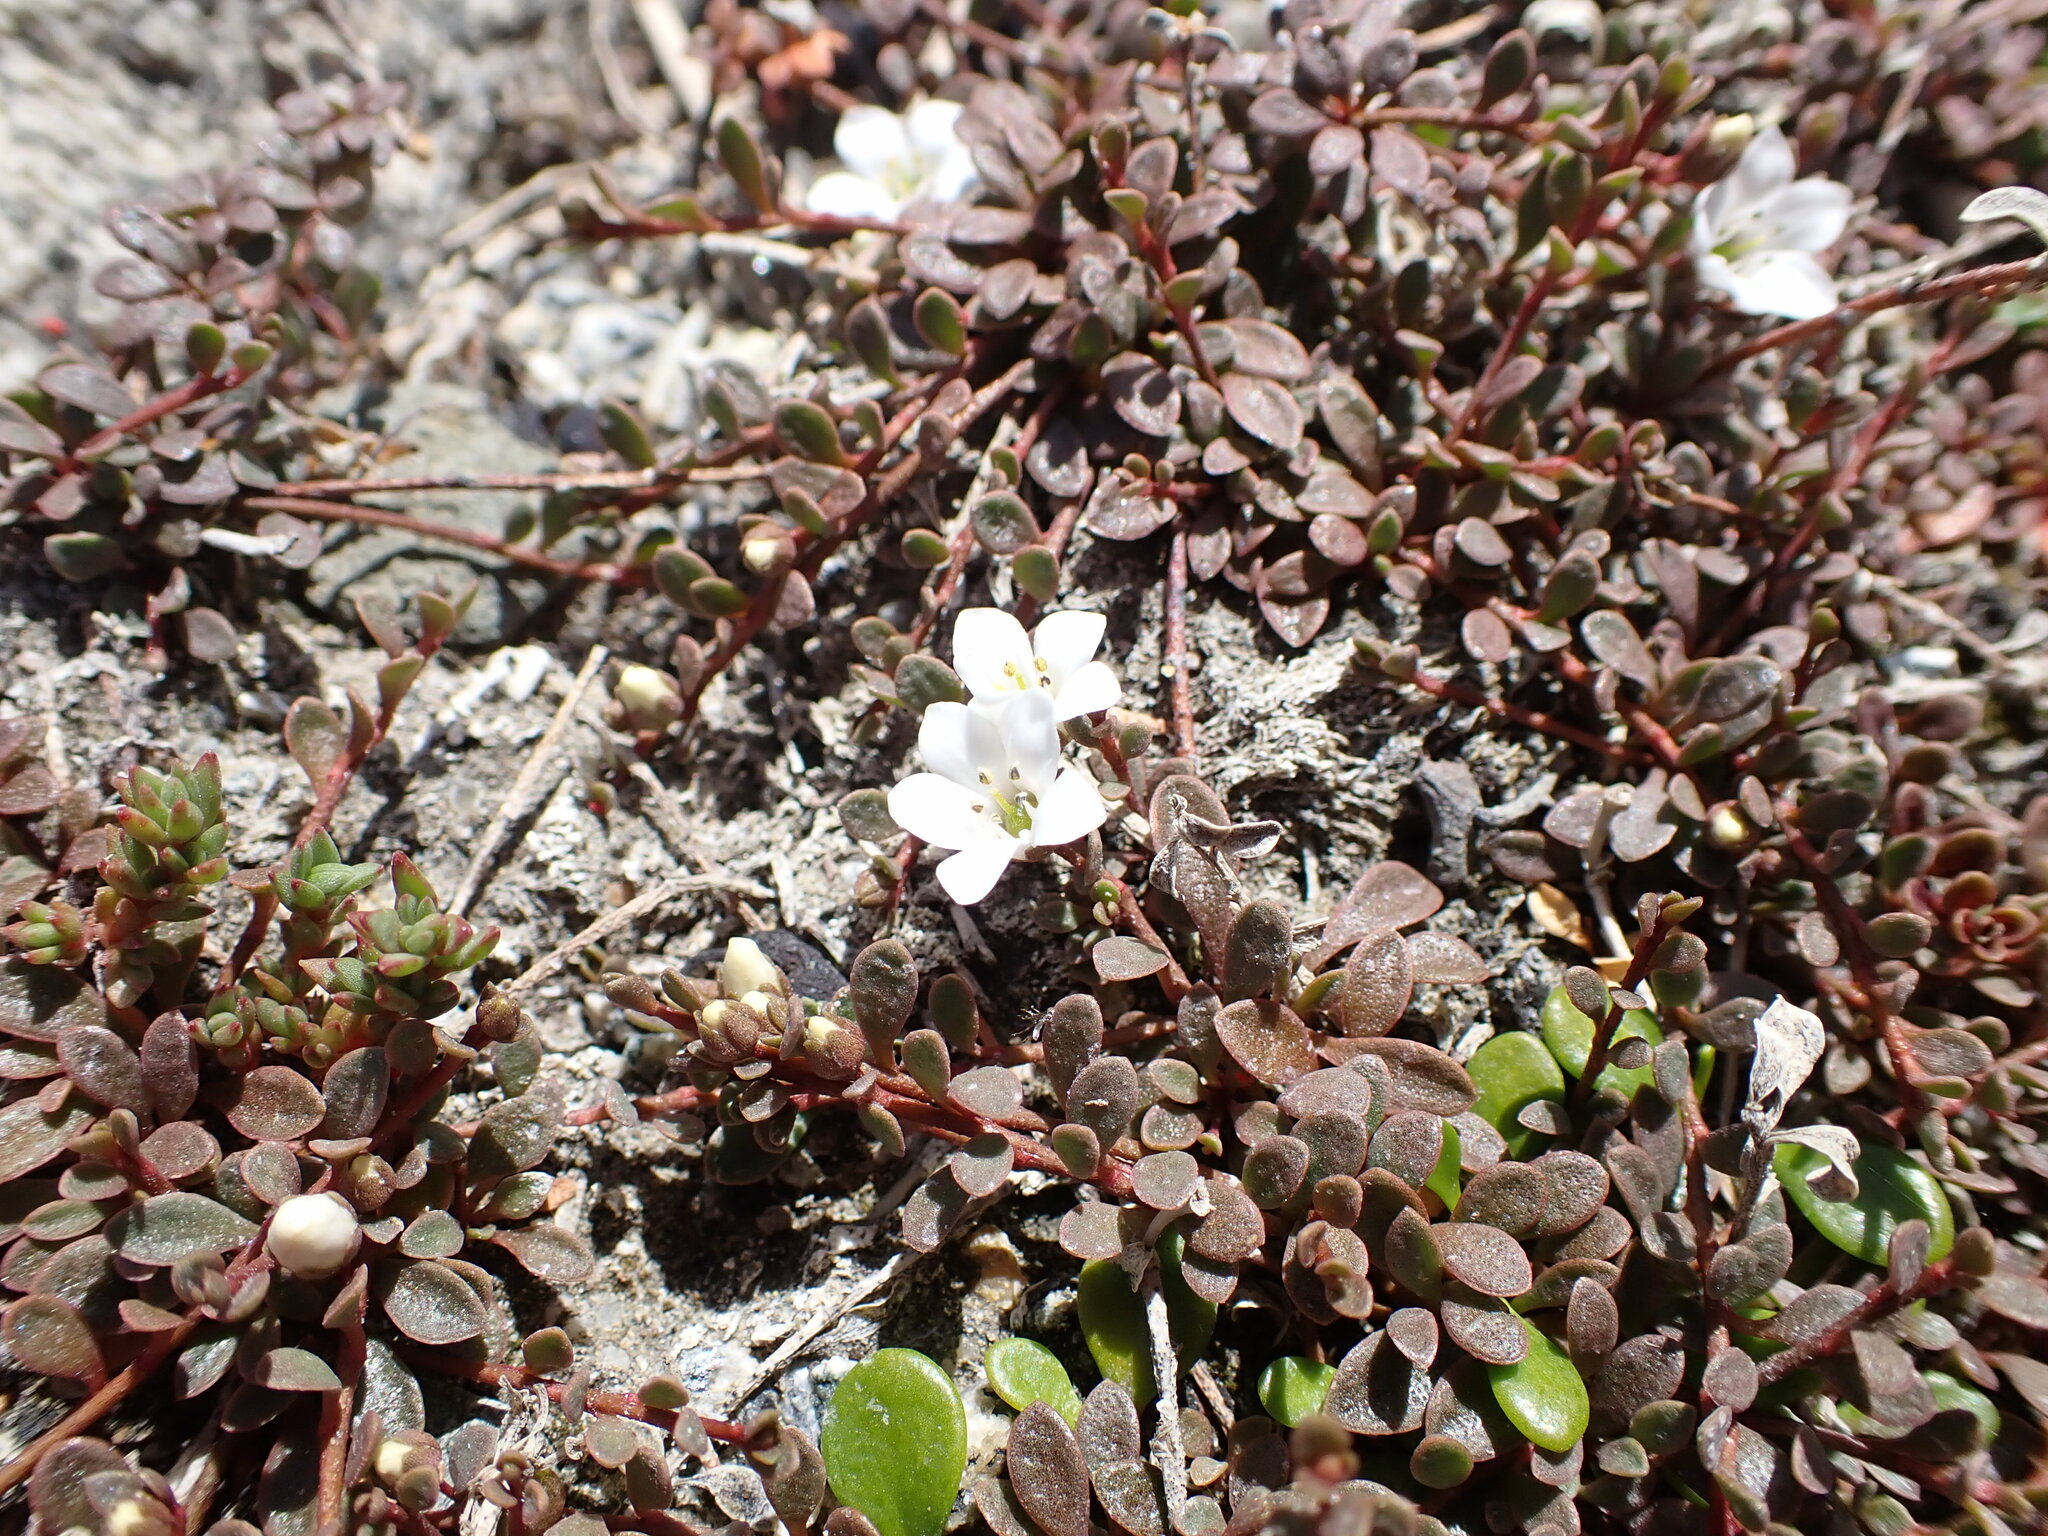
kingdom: Plantae
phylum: Tracheophyta
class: Magnoliopsida
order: Ericales
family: Primulaceae
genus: Samolus
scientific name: Samolus repens
